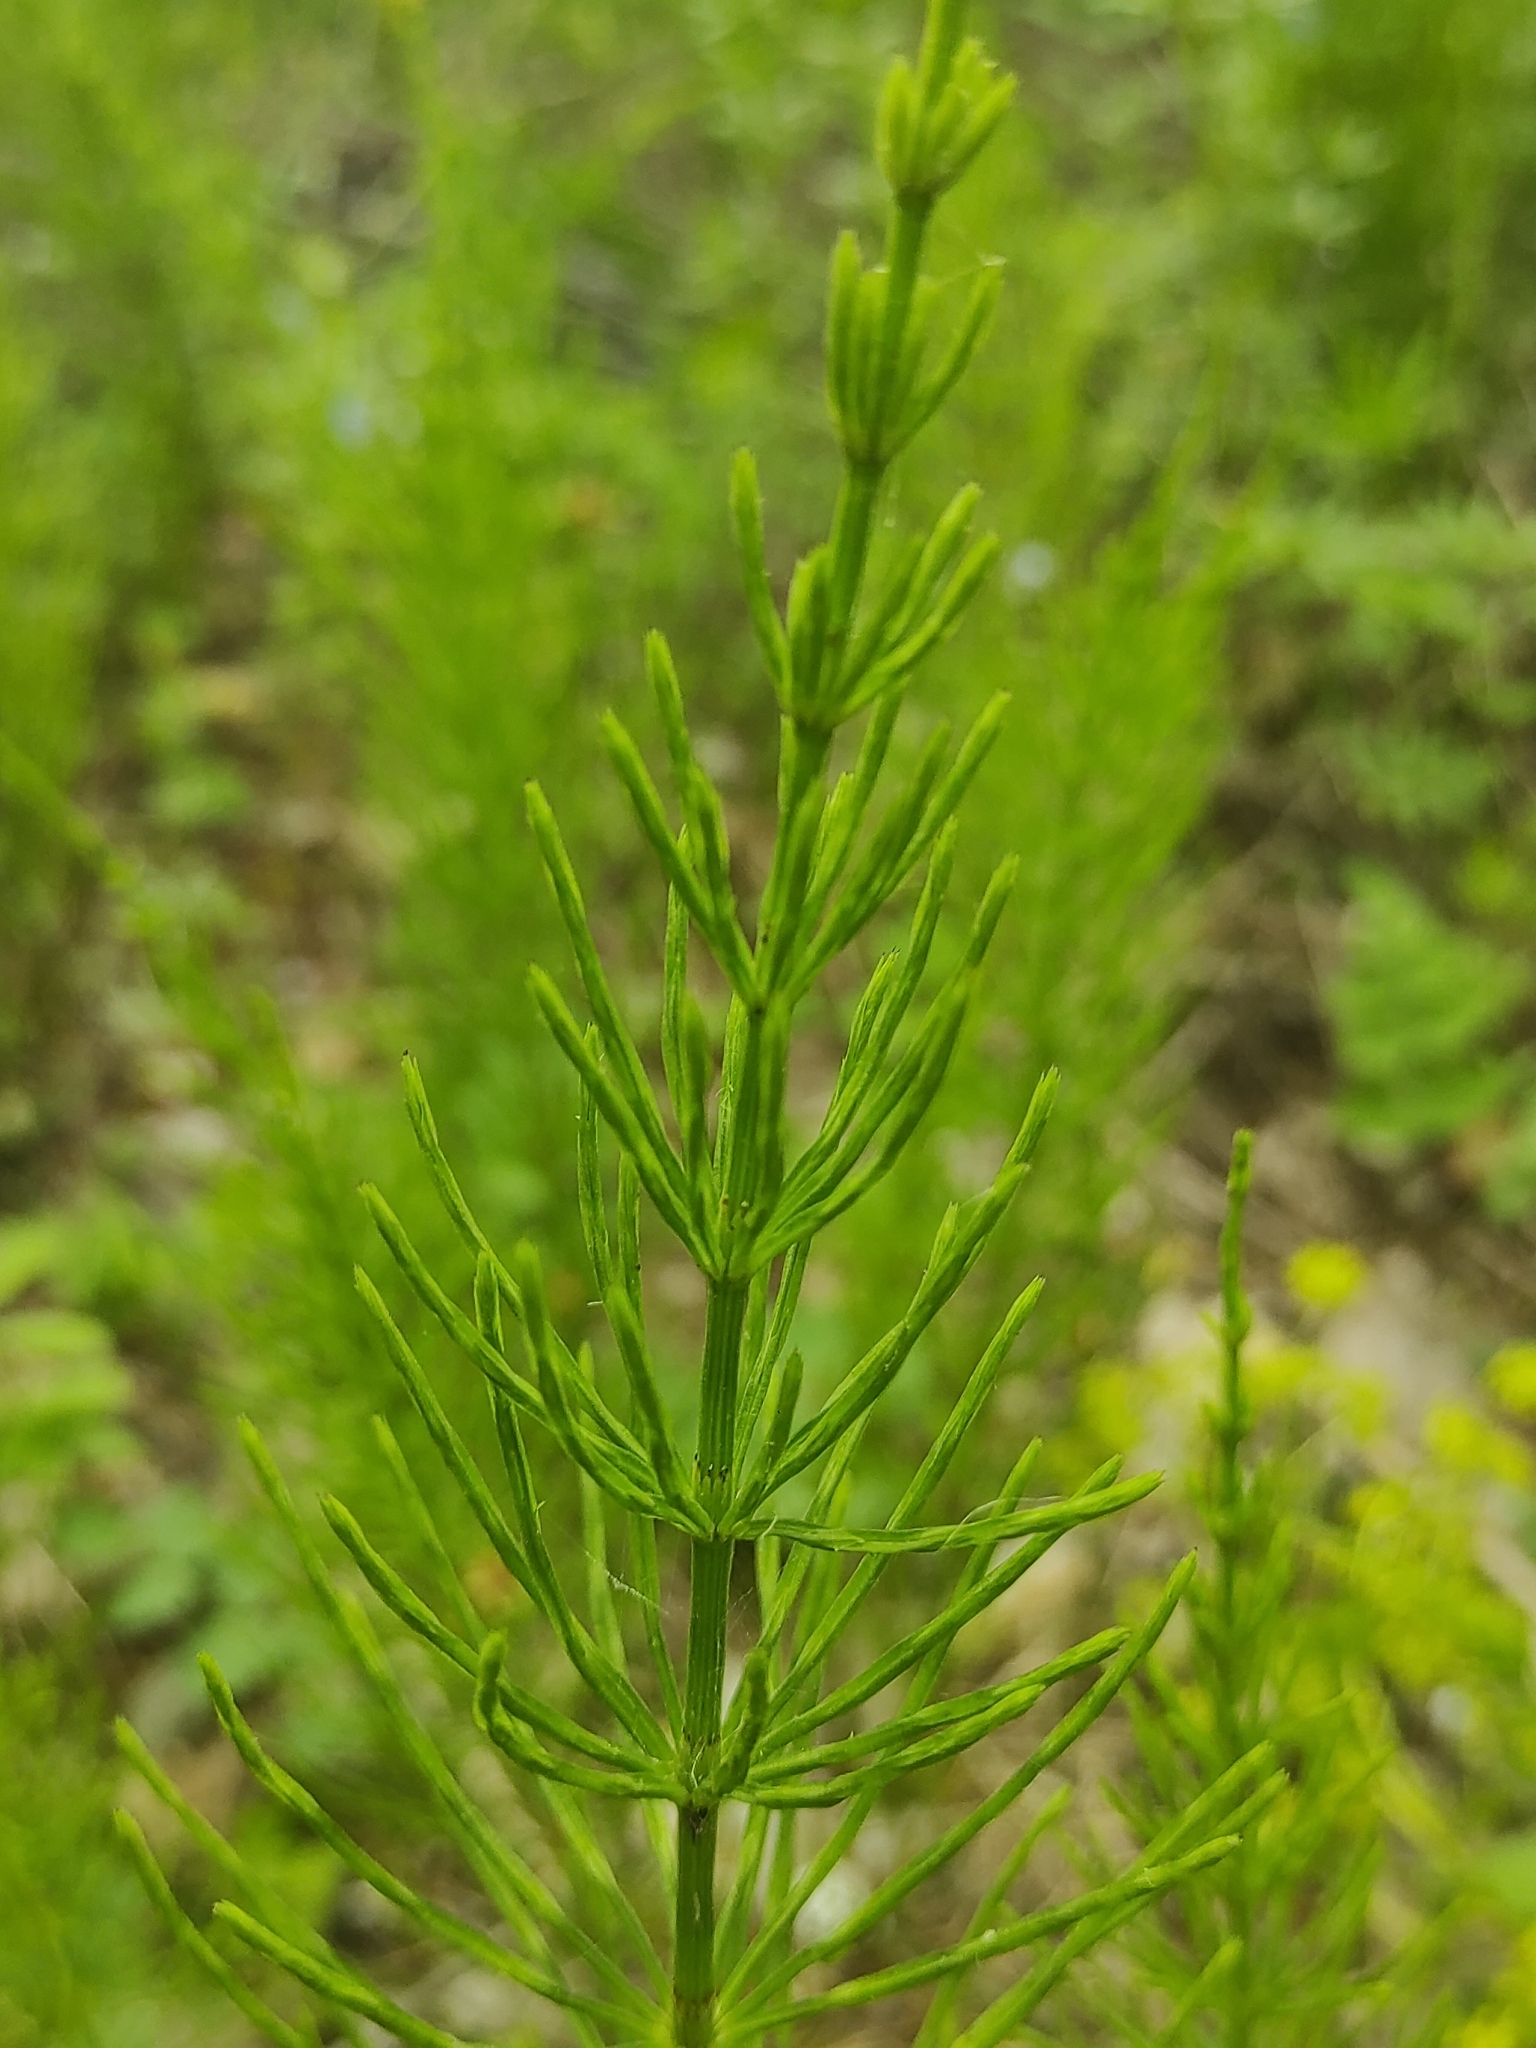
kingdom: Plantae
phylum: Tracheophyta
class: Polypodiopsida
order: Equisetales
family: Equisetaceae
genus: Equisetum
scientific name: Equisetum arvense
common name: Field horsetail
